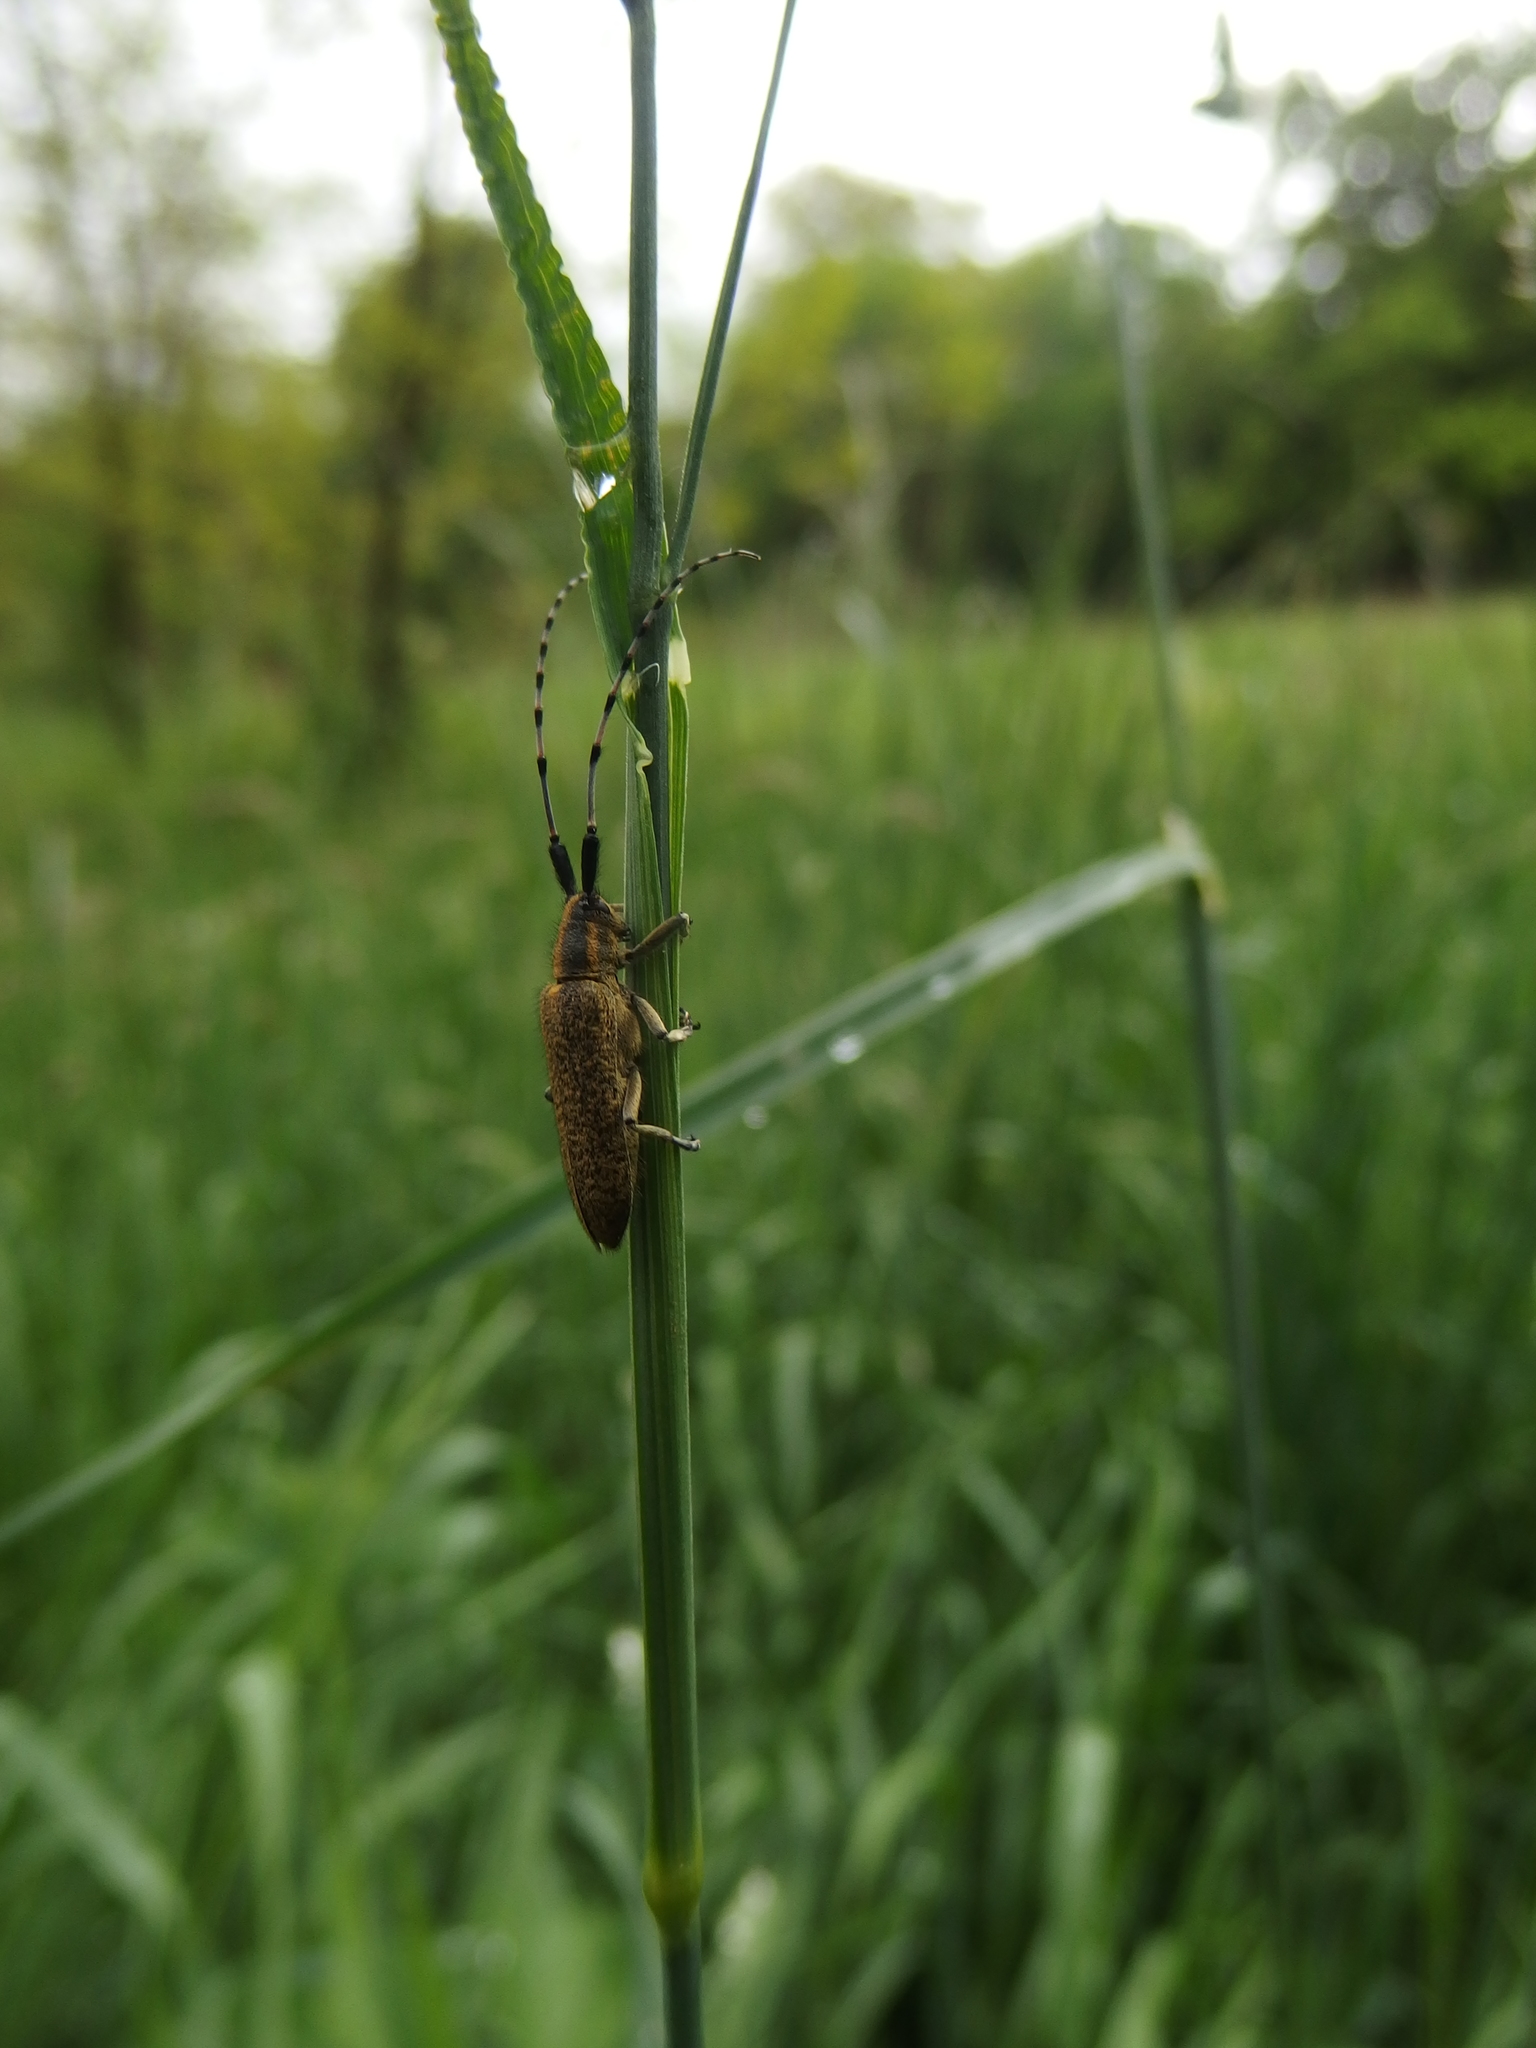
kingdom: Animalia
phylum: Arthropoda
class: Insecta
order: Coleoptera
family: Cerambycidae
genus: Agapanthia
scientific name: Agapanthia villosoviridescens
